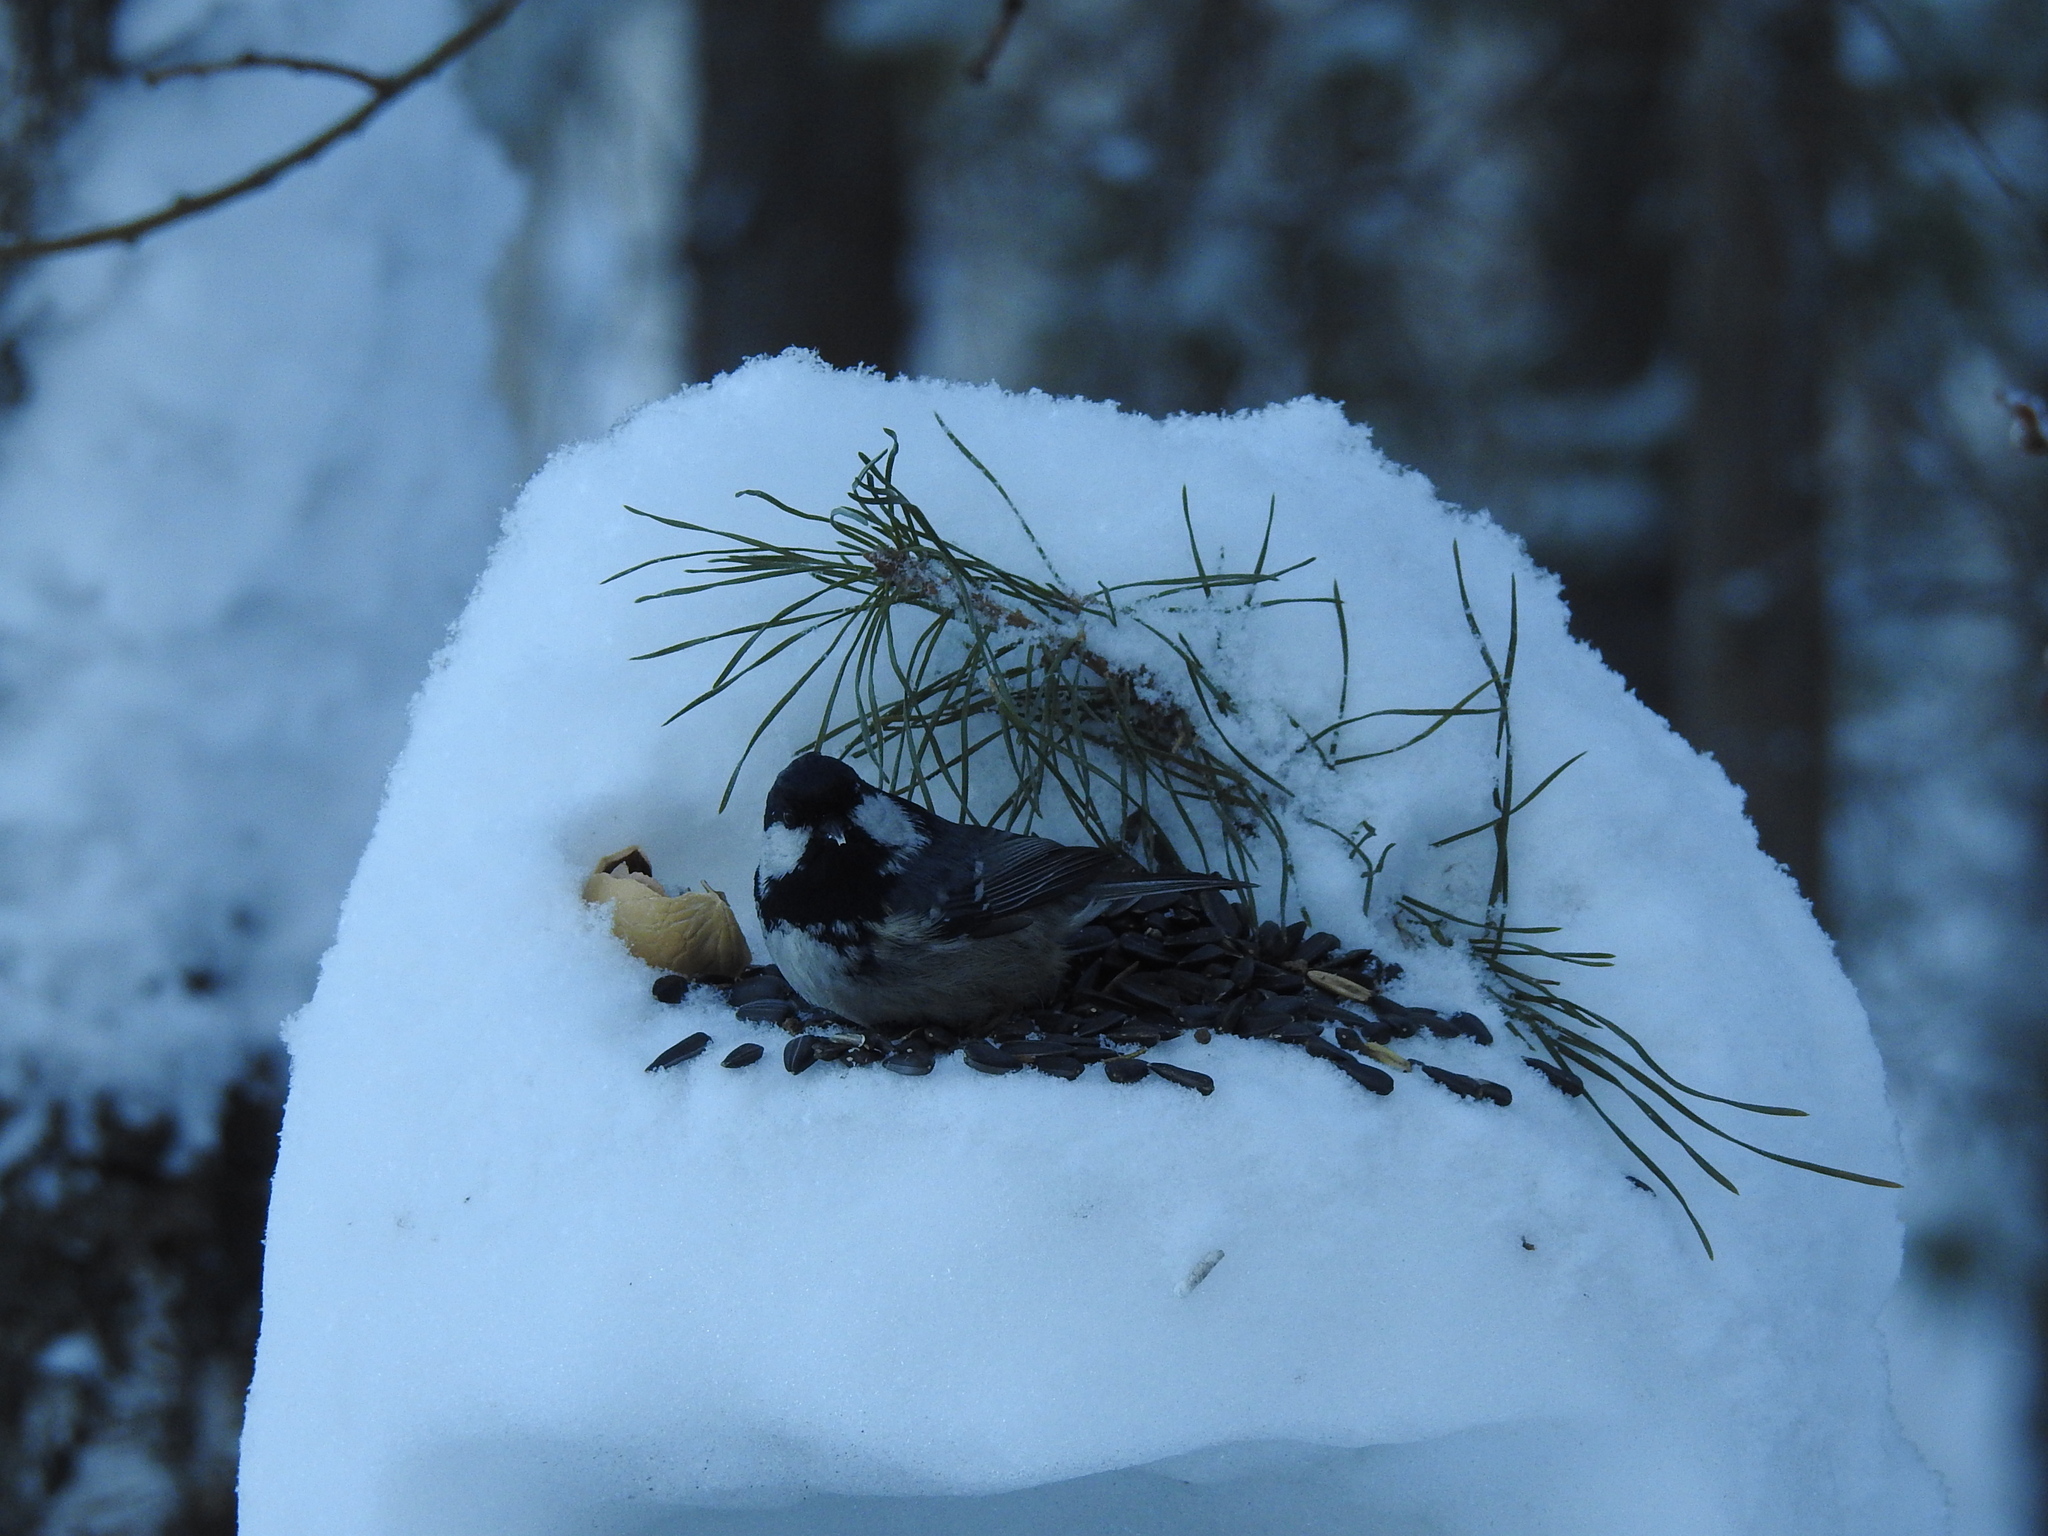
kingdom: Animalia
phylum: Chordata
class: Aves
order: Passeriformes
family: Paridae
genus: Periparus
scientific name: Periparus ater
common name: Coal tit
